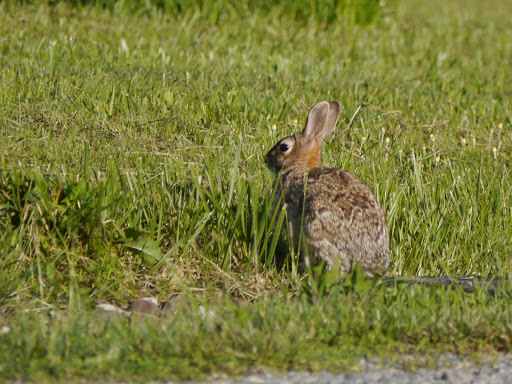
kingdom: Animalia
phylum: Chordata
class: Mammalia
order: Lagomorpha
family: Leporidae
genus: Sylvilagus
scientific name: Sylvilagus floridanus
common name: Eastern cottontail
